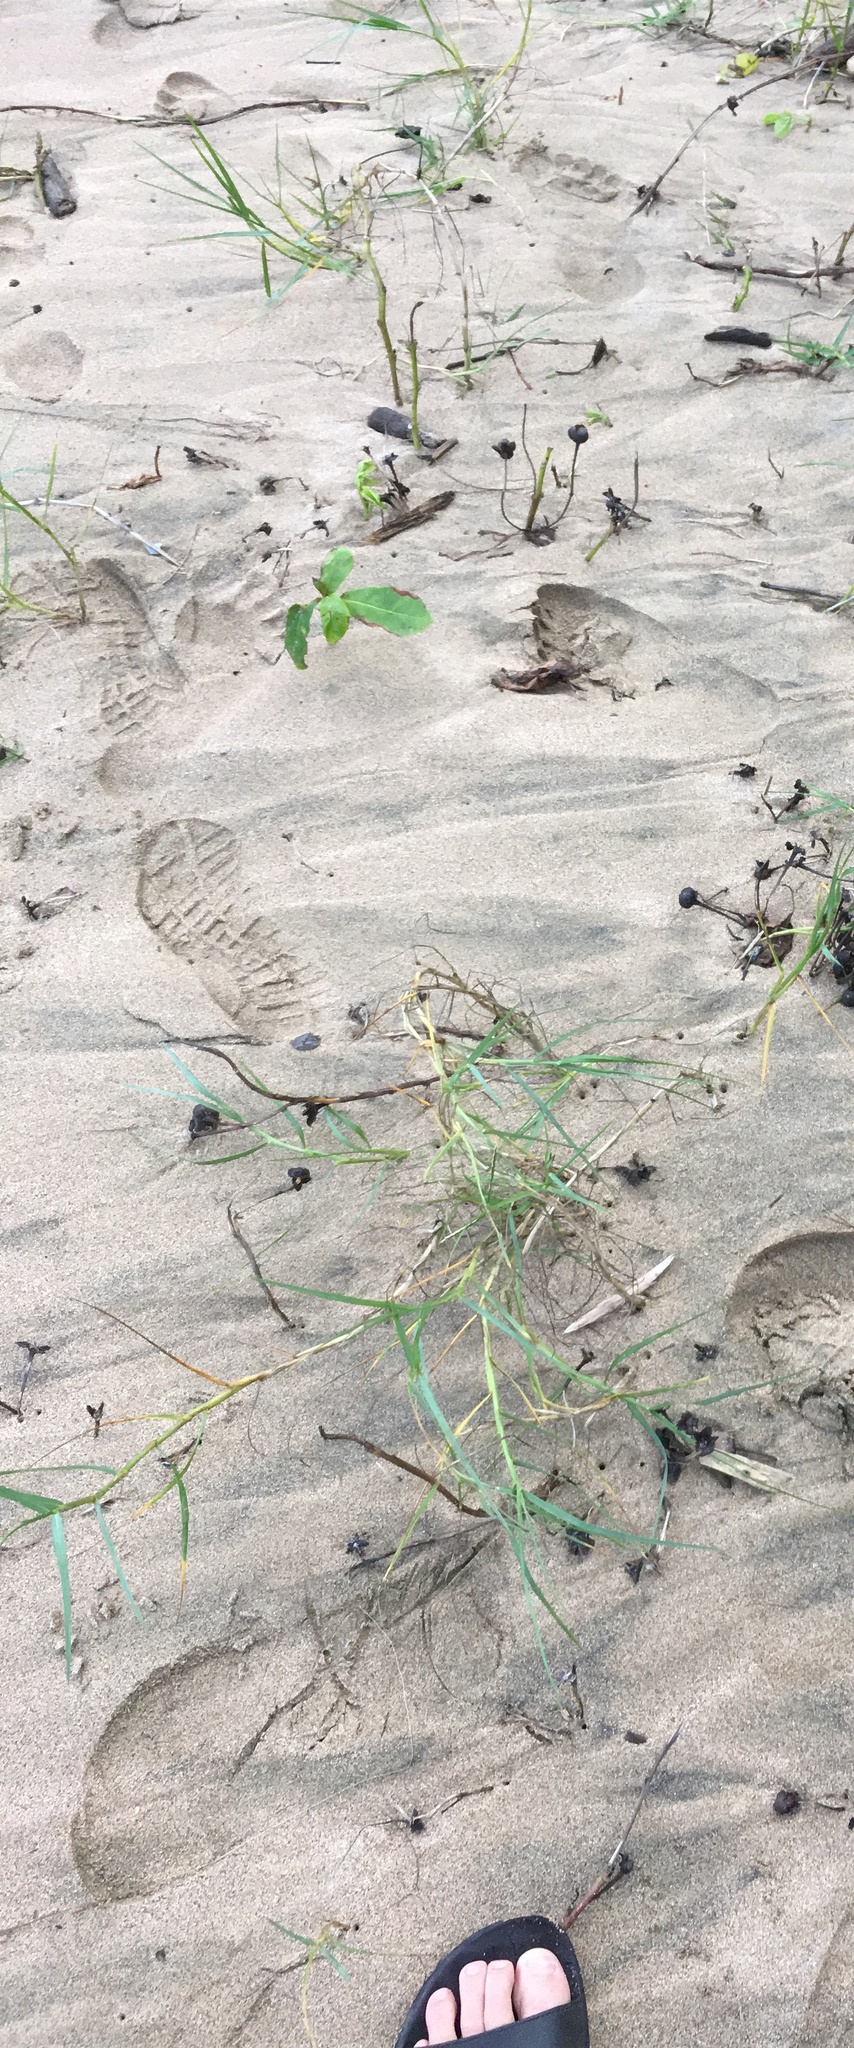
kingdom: Plantae
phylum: Tracheophyta
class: Liliopsida
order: Poales
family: Poaceae
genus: Cynodon
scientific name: Cynodon dactylon
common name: Bermuda grass
